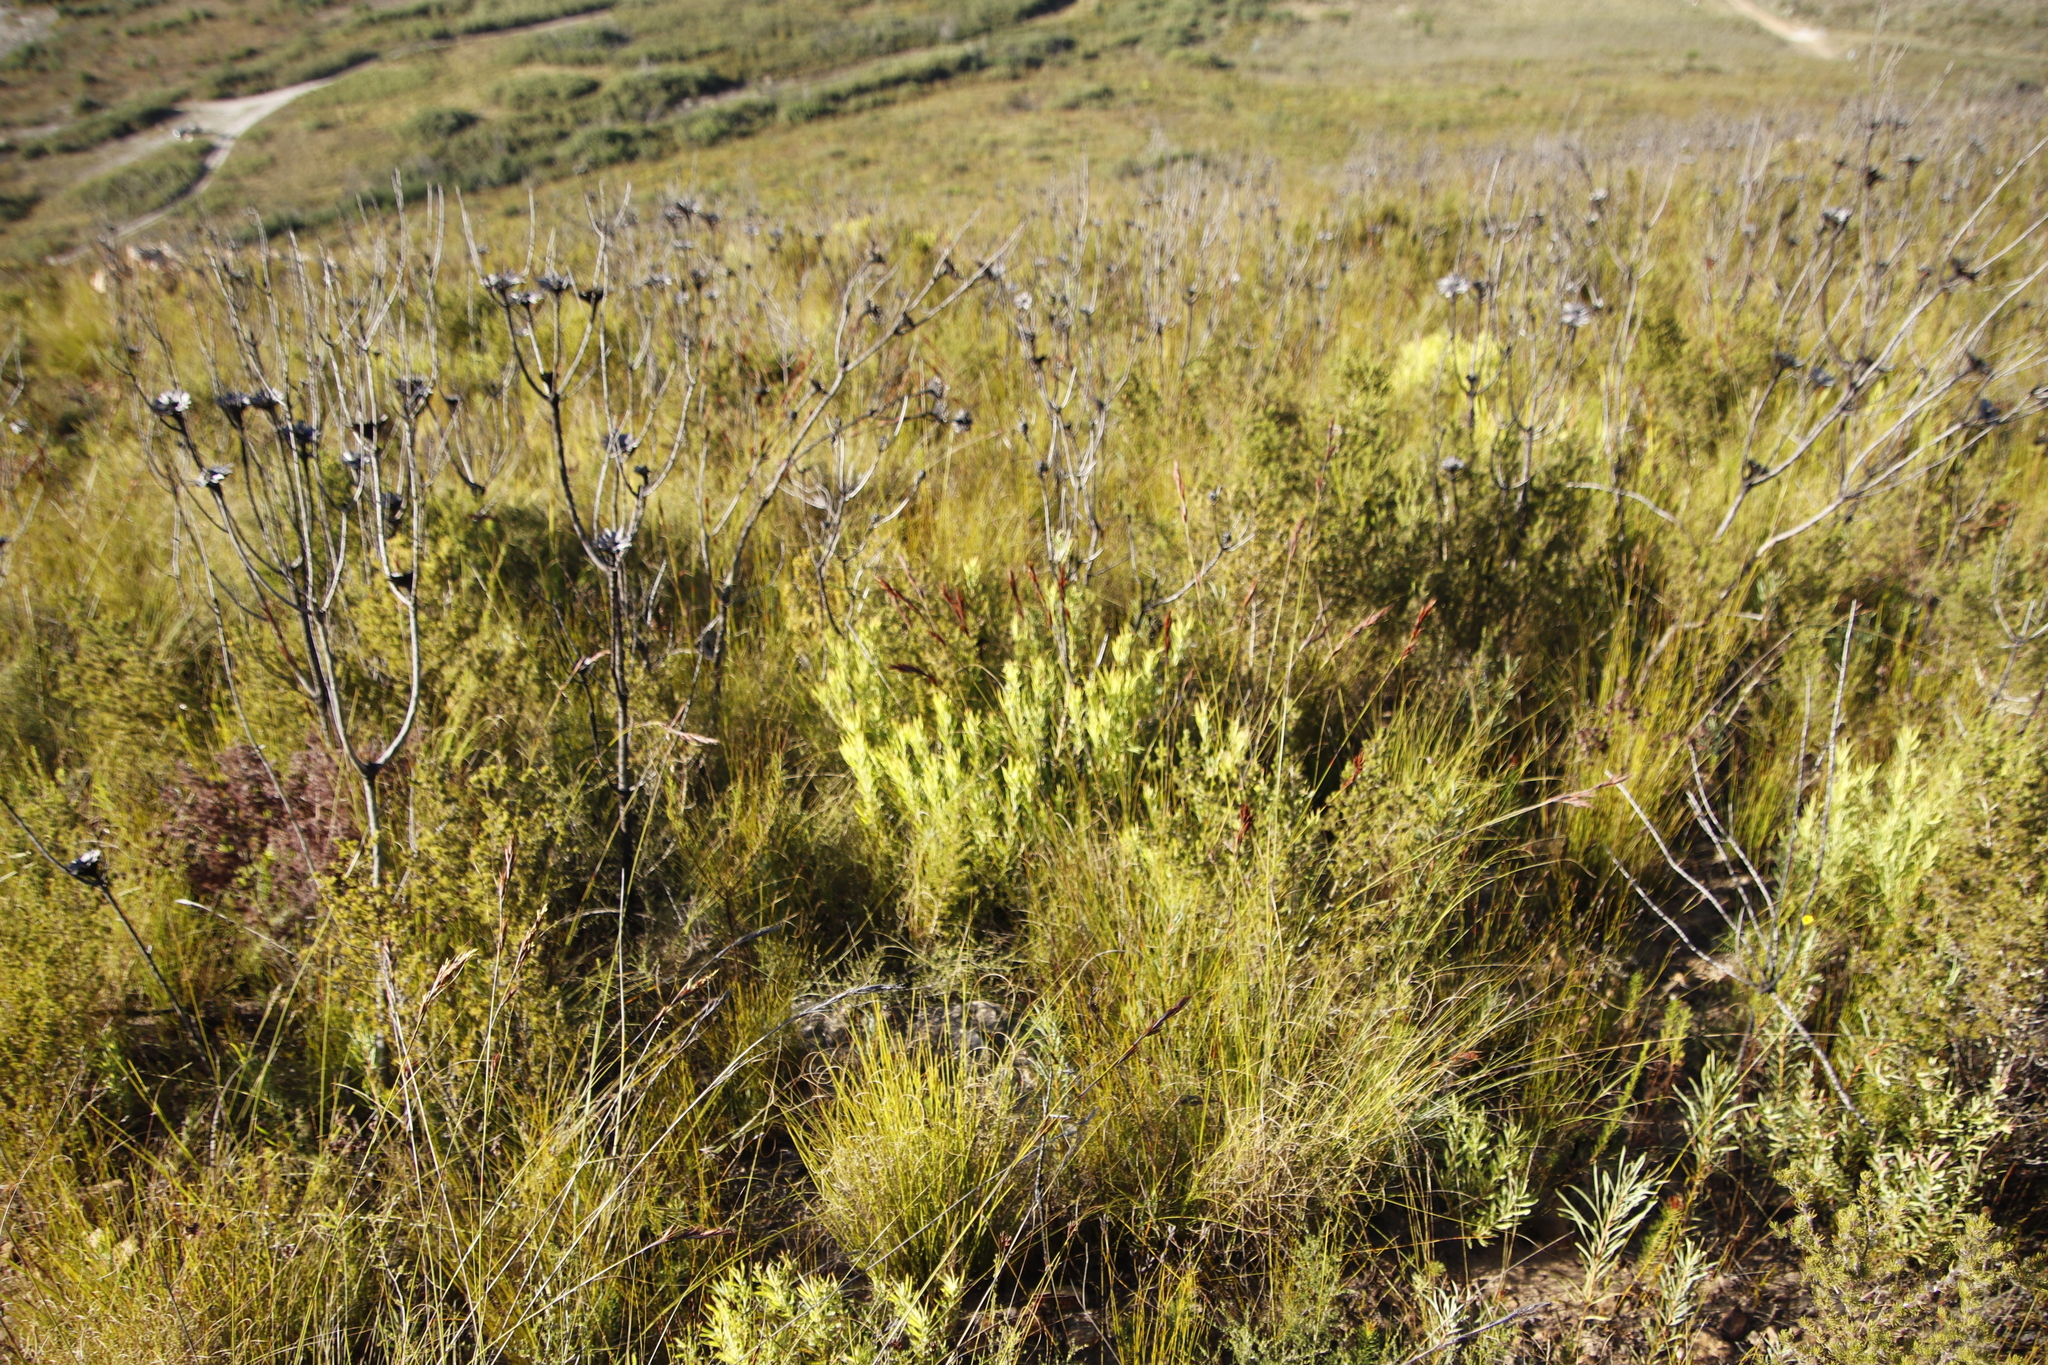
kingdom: Plantae
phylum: Tracheophyta
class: Magnoliopsida
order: Proteales
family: Proteaceae
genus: Leucadendron
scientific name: Leucadendron salignum
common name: Common sunshine conebush
